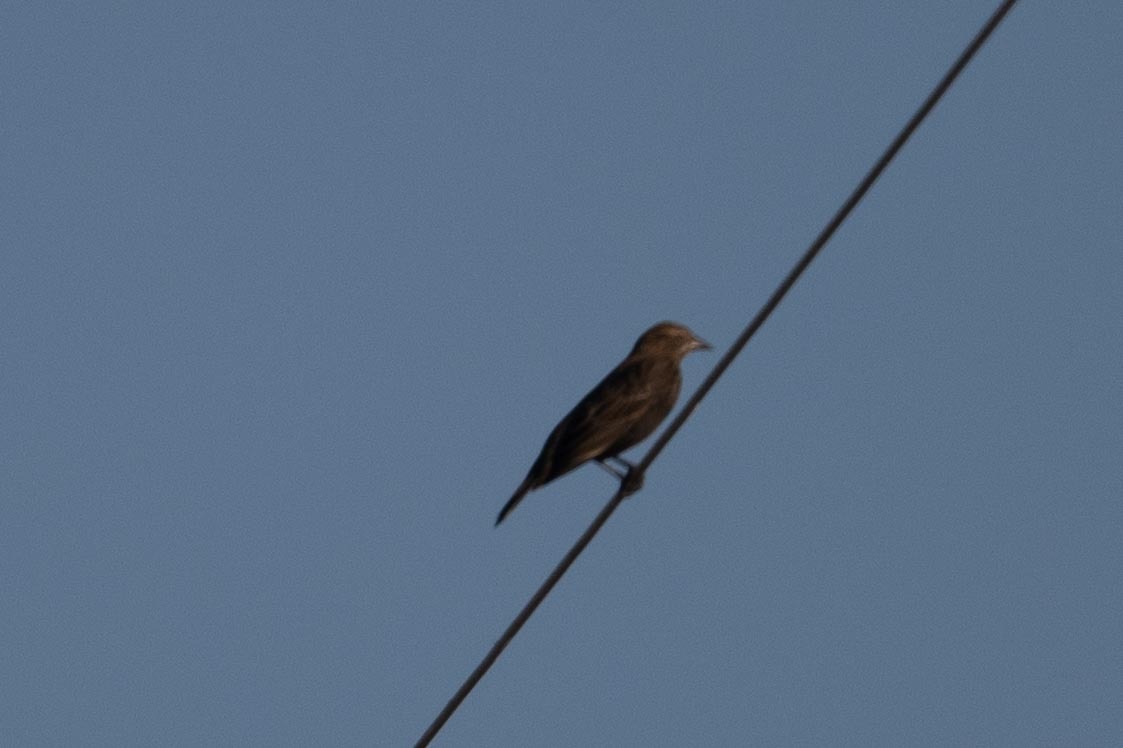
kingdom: Animalia
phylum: Chordata
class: Aves
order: Passeriformes
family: Icteridae
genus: Agelaius
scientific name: Agelaius phoeniceus
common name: Red-winged blackbird
